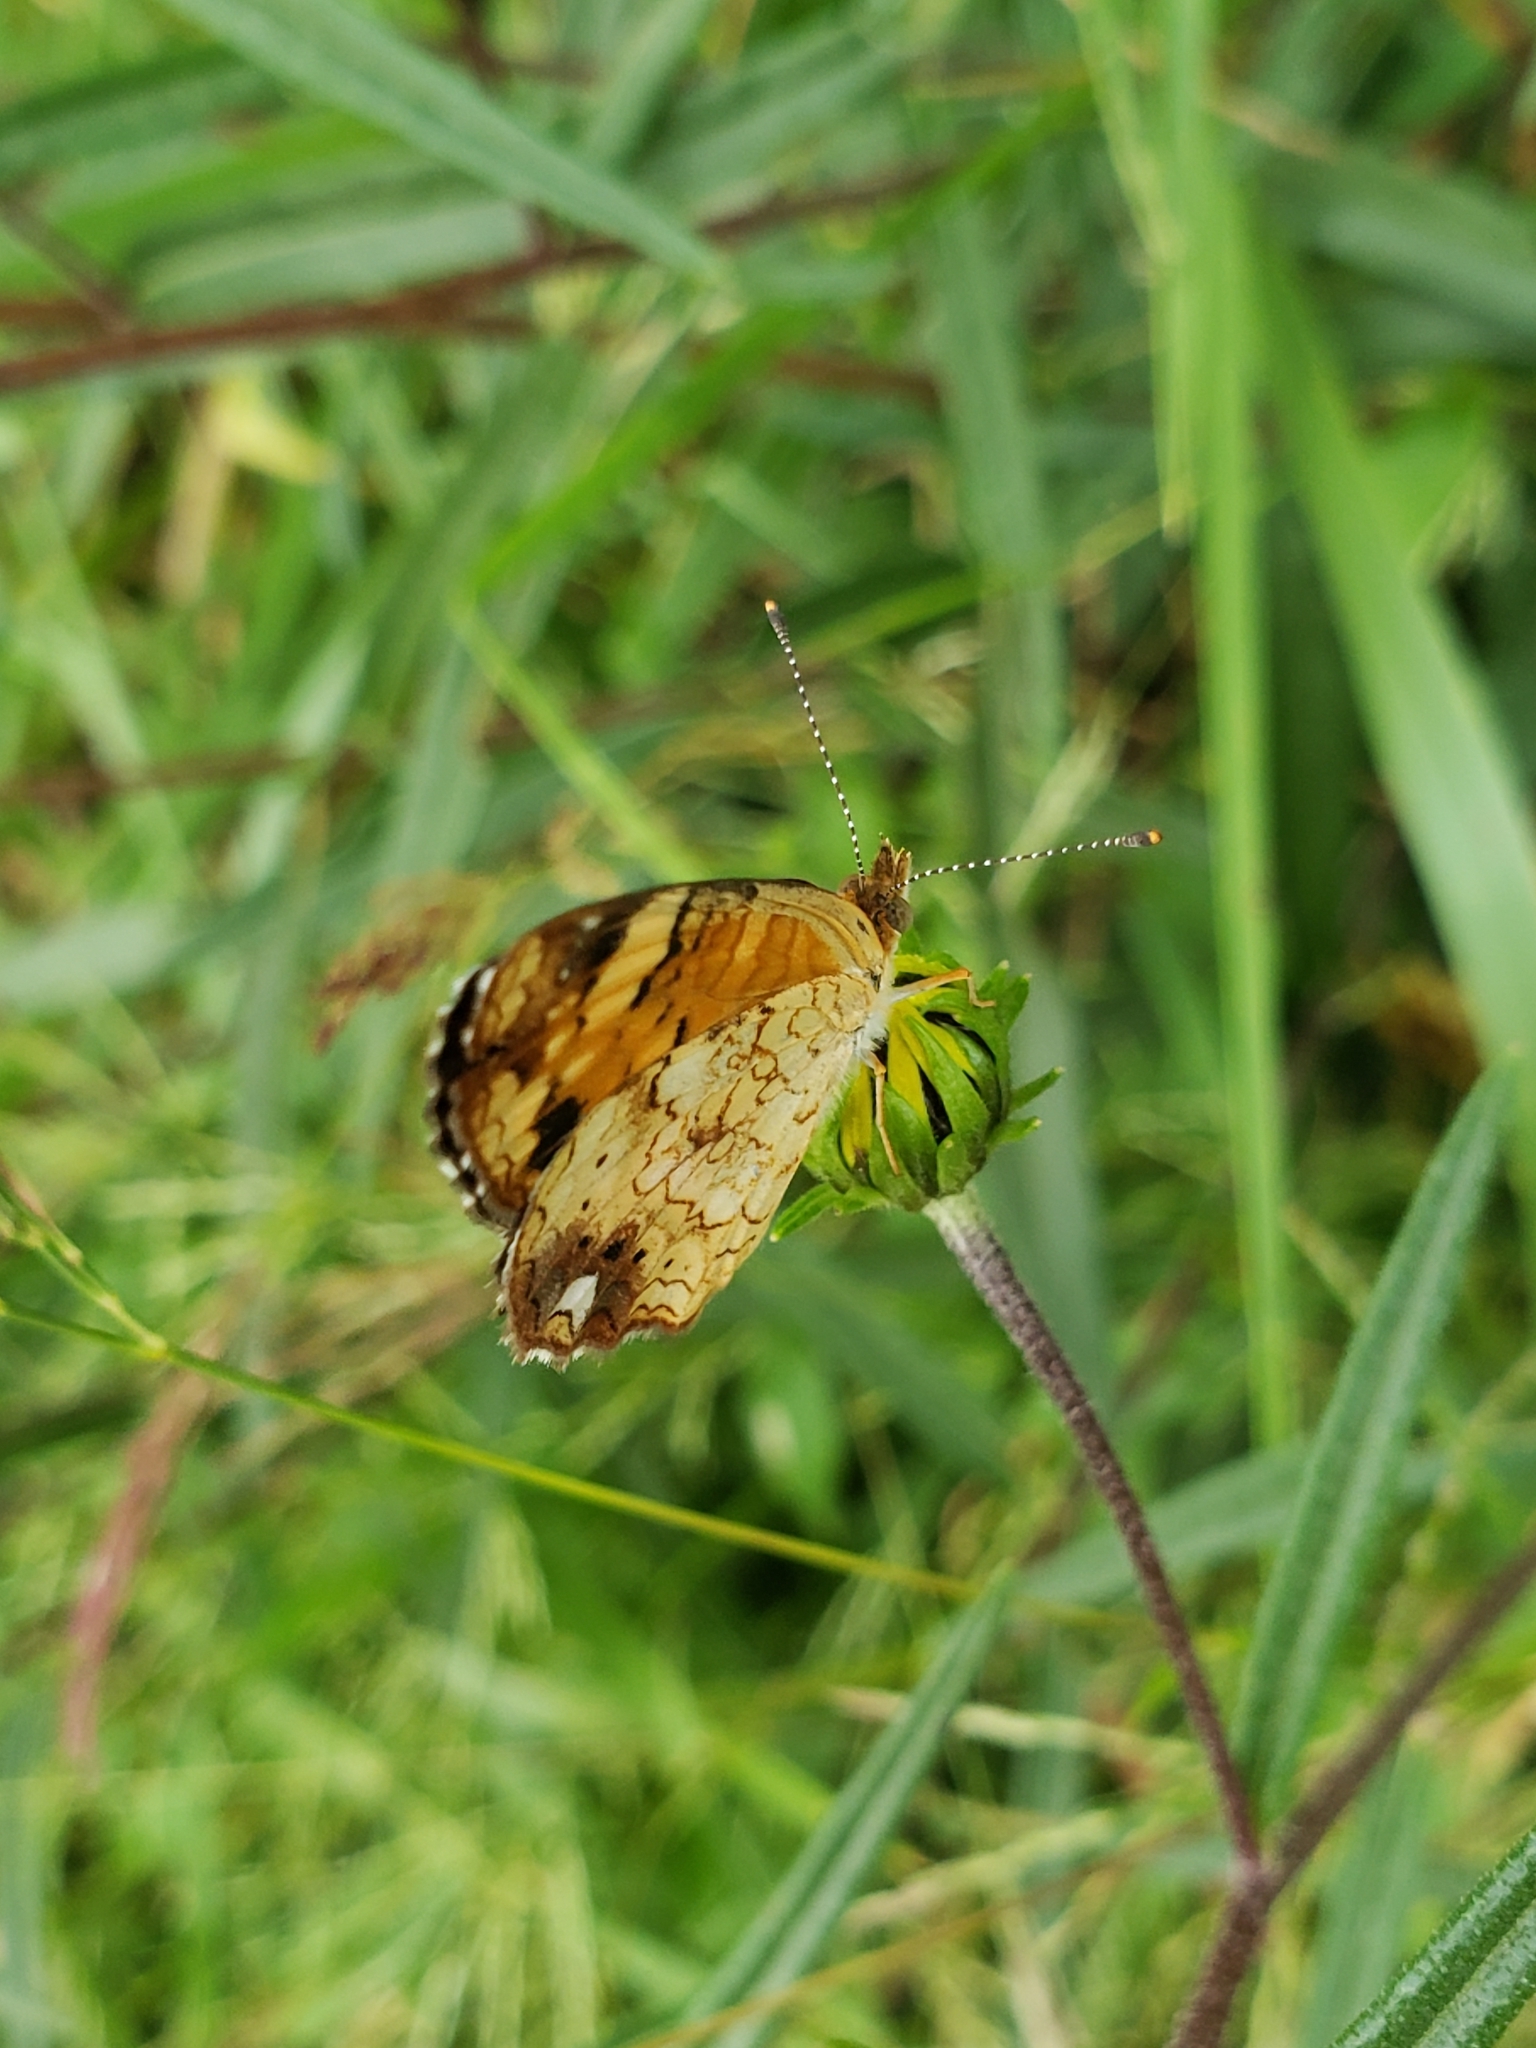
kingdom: Animalia
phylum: Arthropoda
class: Insecta
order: Lepidoptera
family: Nymphalidae
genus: Phyciodes
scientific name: Phyciodes tharos
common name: Pearl crescent
